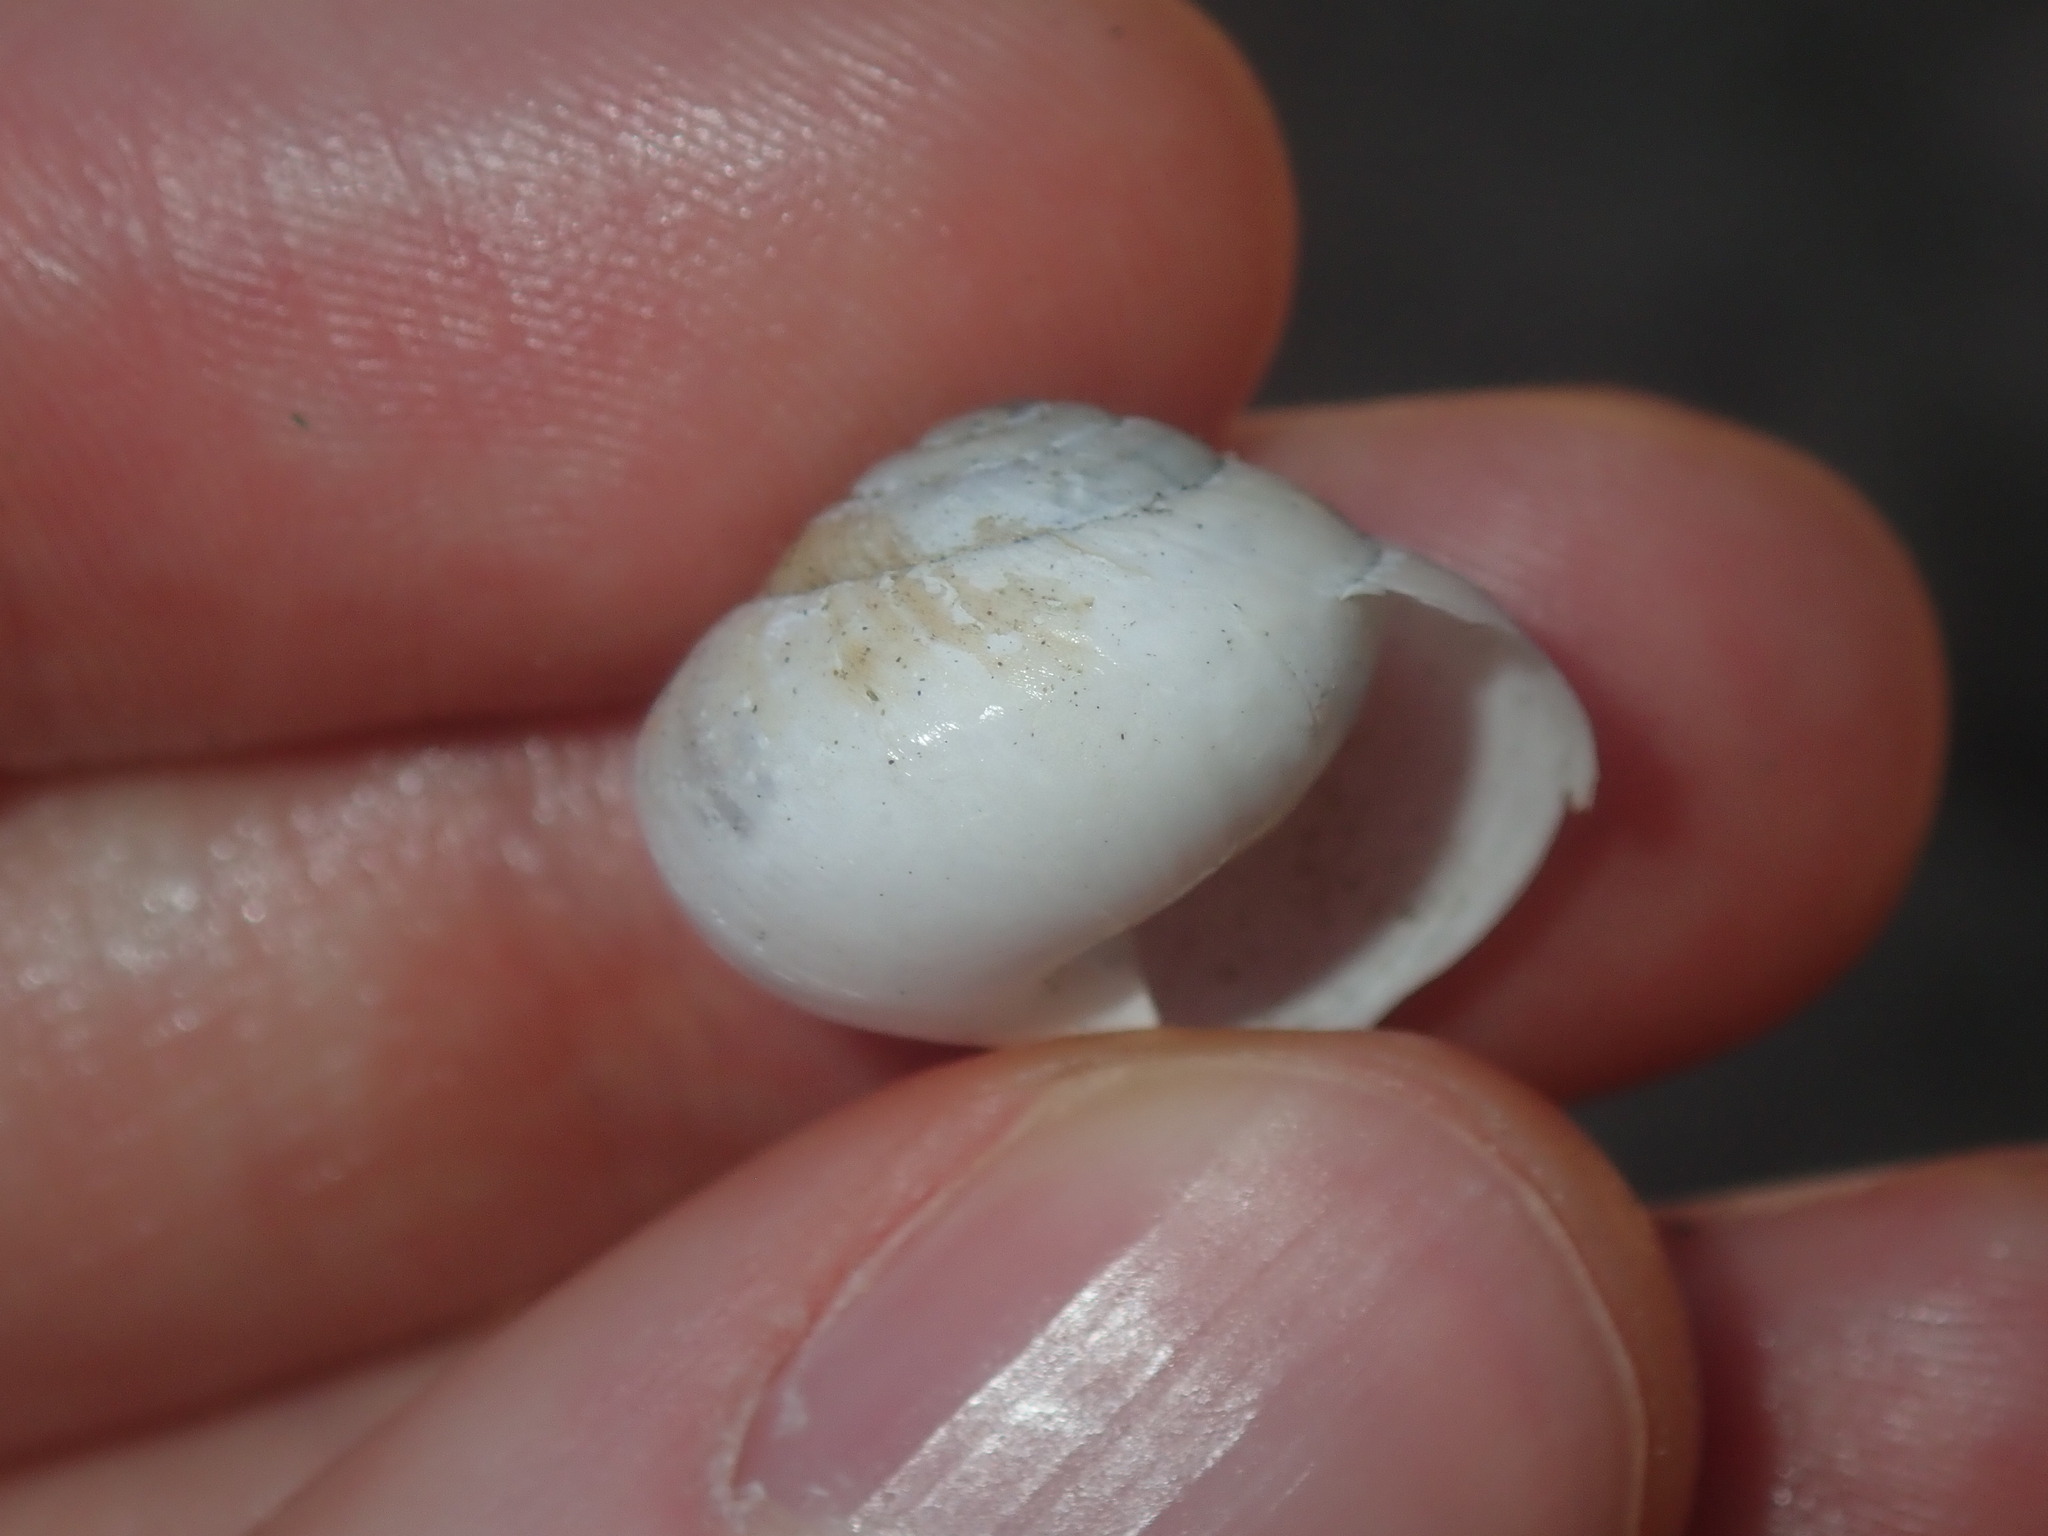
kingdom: Animalia
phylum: Mollusca
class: Gastropoda
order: Stylommatophora
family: Camaenidae
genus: Sauroconcha
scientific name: Sauroconcha corneovirens
